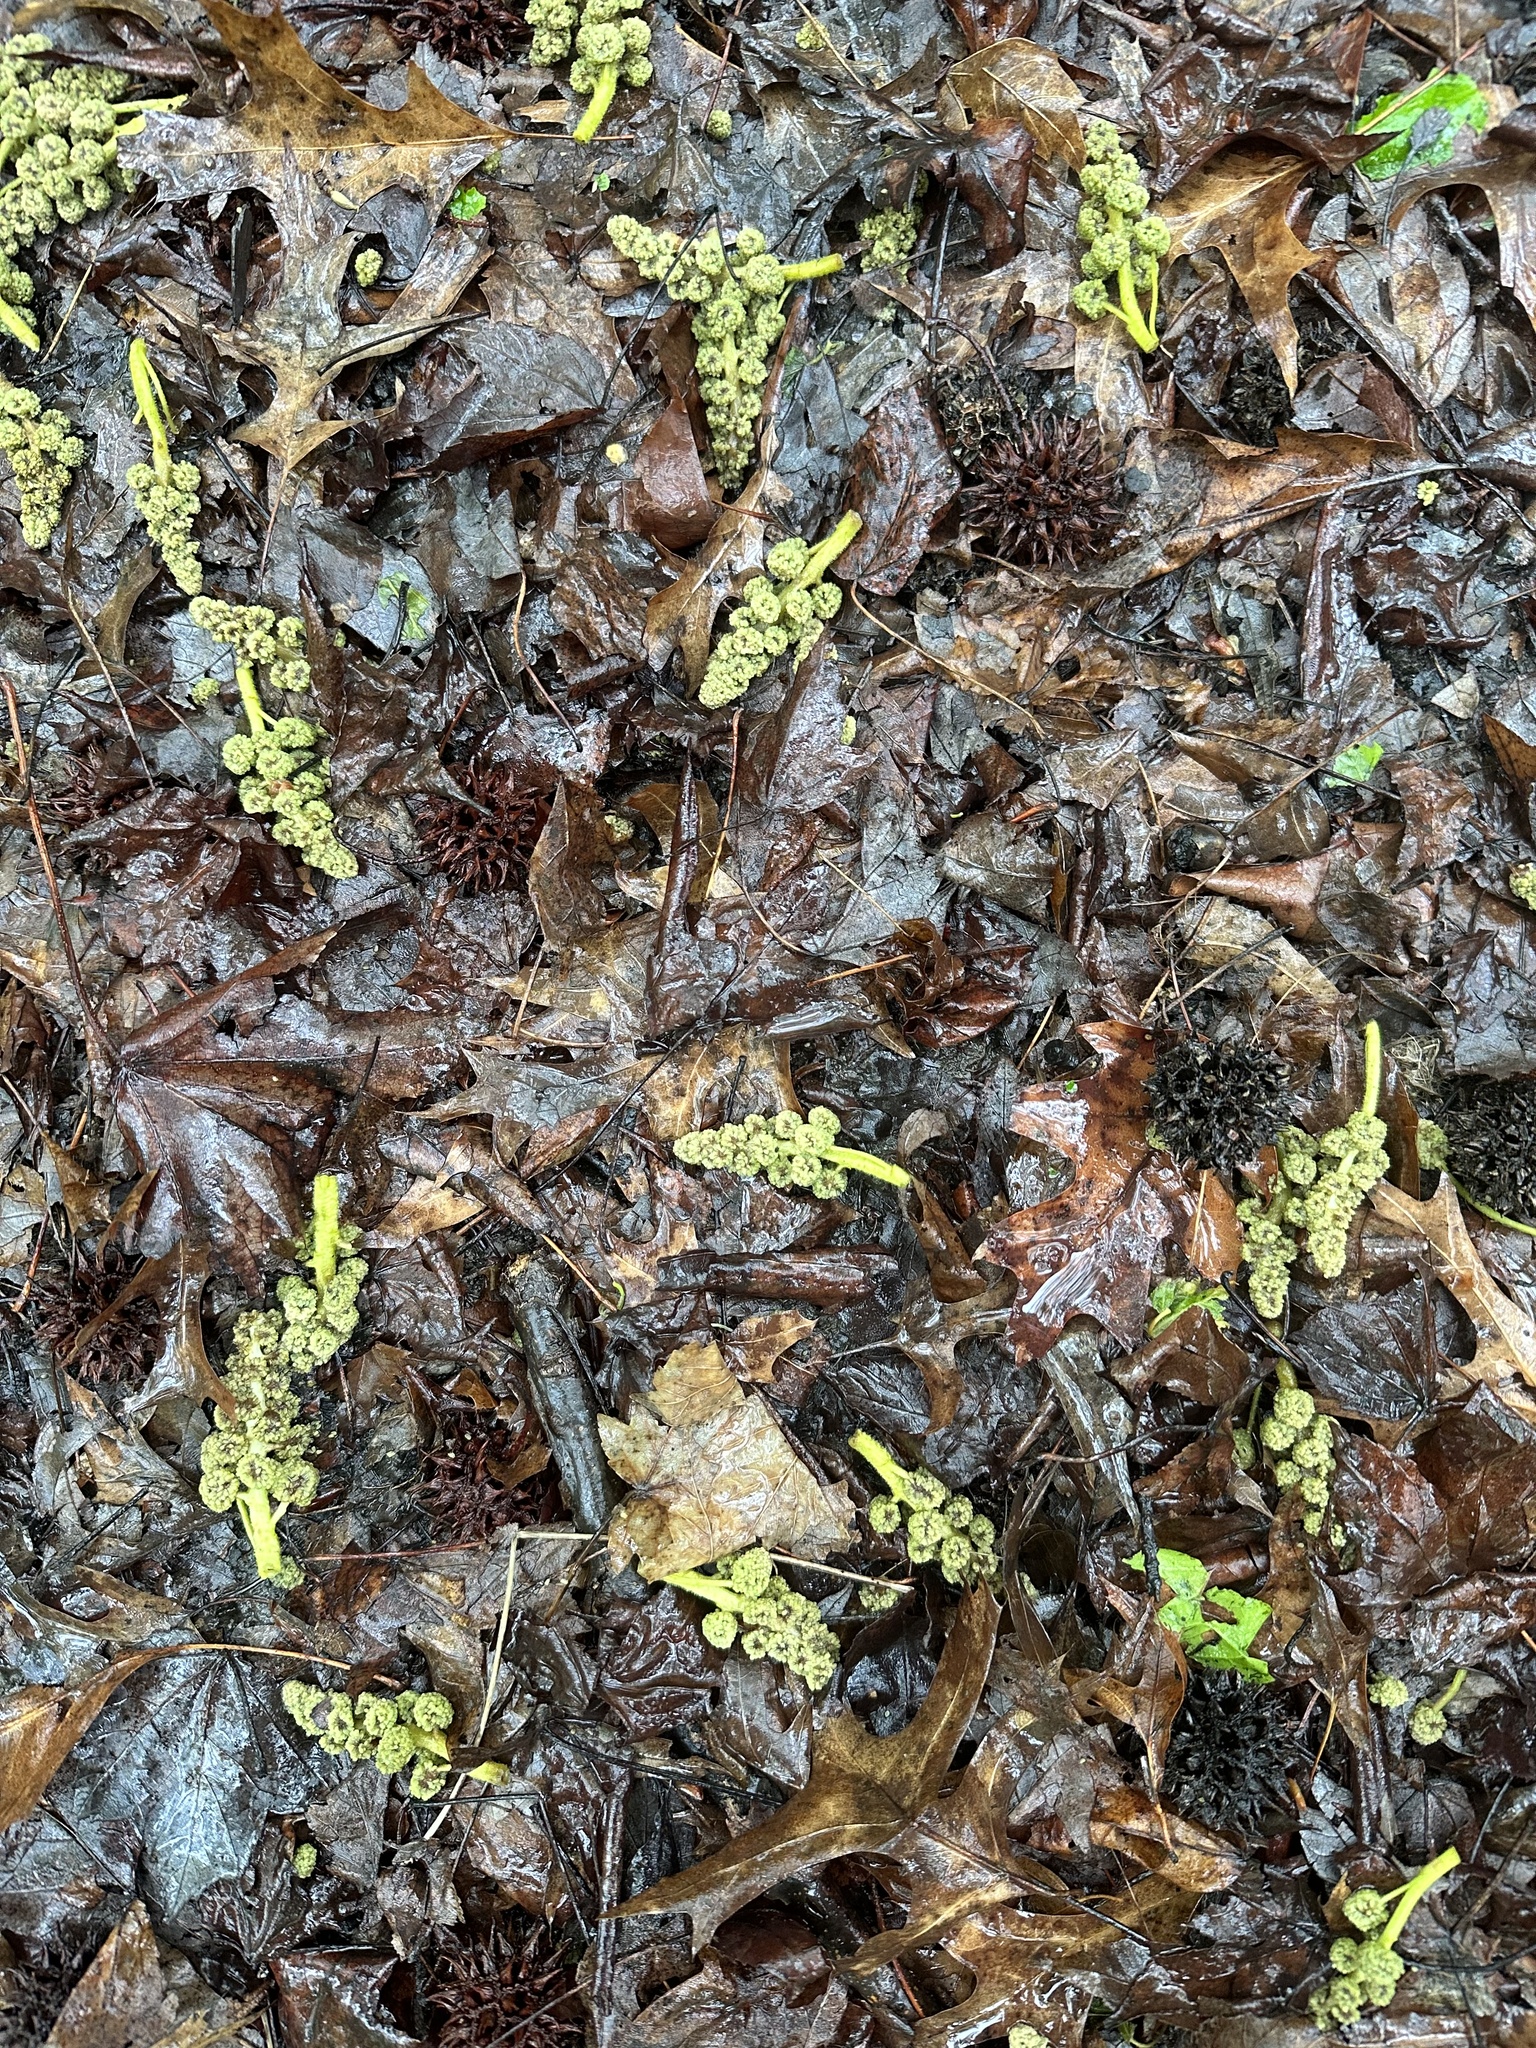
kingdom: Plantae
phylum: Tracheophyta
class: Magnoliopsida
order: Saxifragales
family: Altingiaceae
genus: Liquidambar
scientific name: Liquidambar styraciflua
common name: Sweet gum
